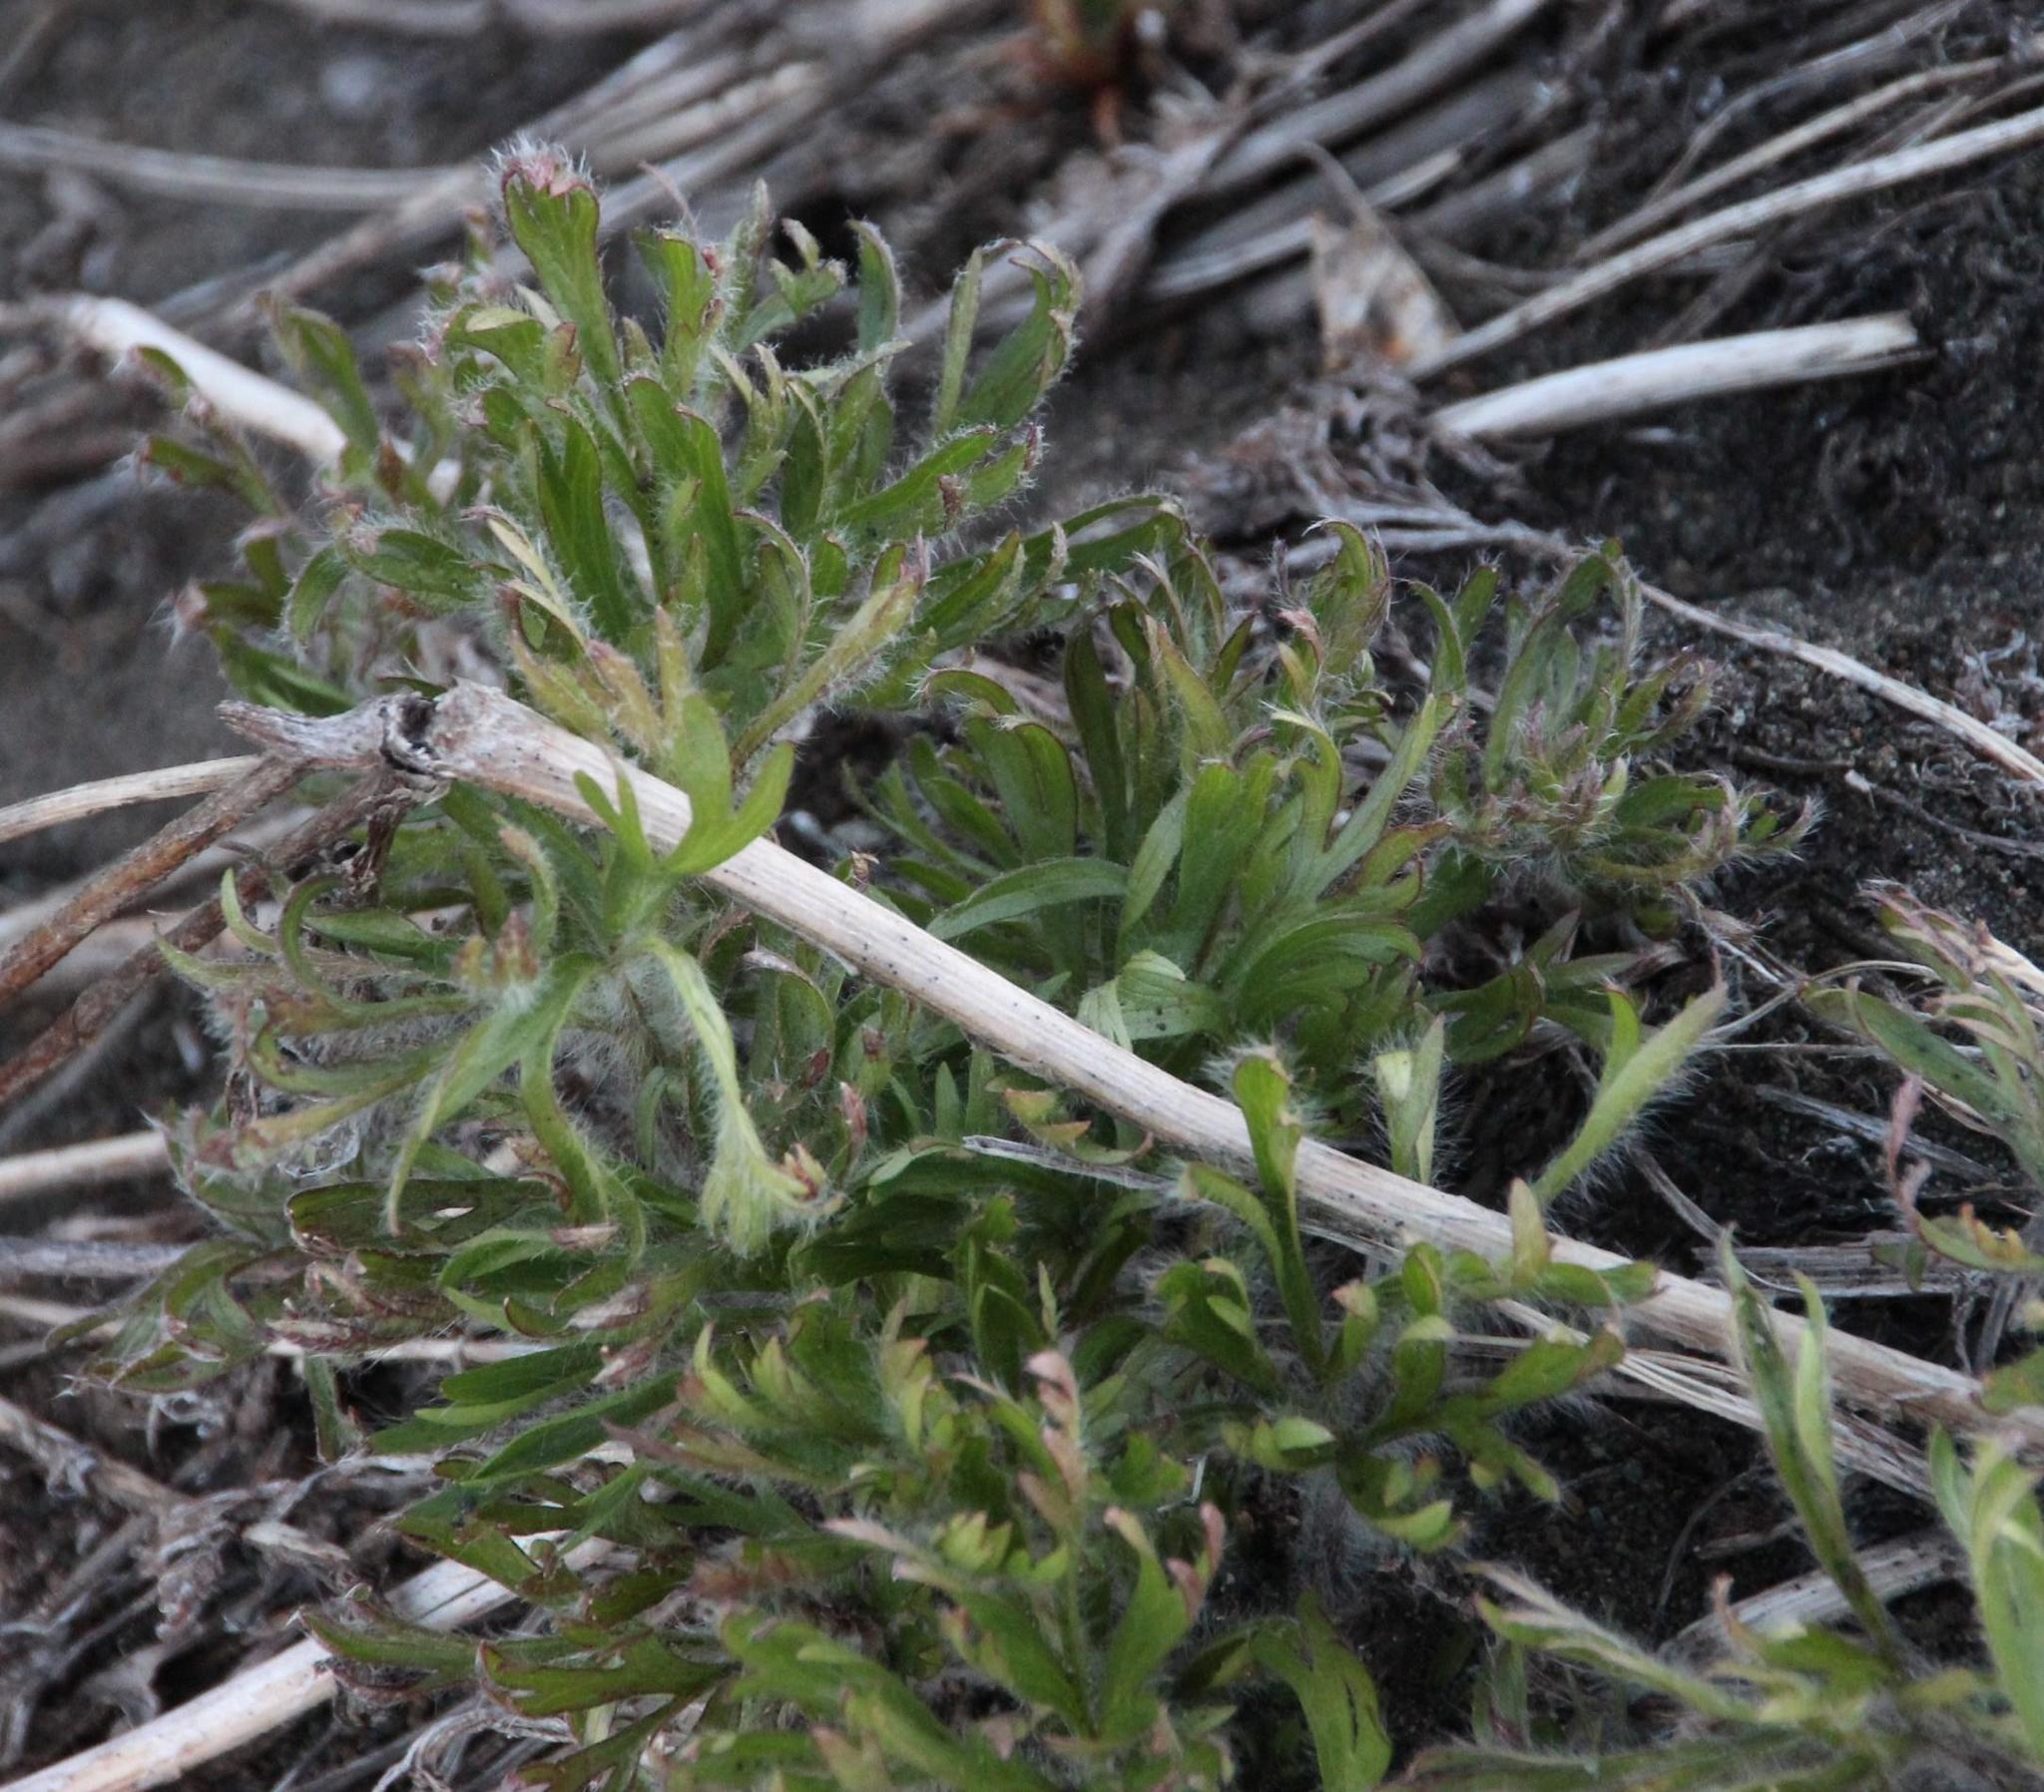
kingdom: Plantae
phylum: Tracheophyta
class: Magnoliopsida
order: Ranunculales
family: Ranunculaceae
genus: Anemone
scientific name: Anemone multifida
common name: Bird's-foot anemone
